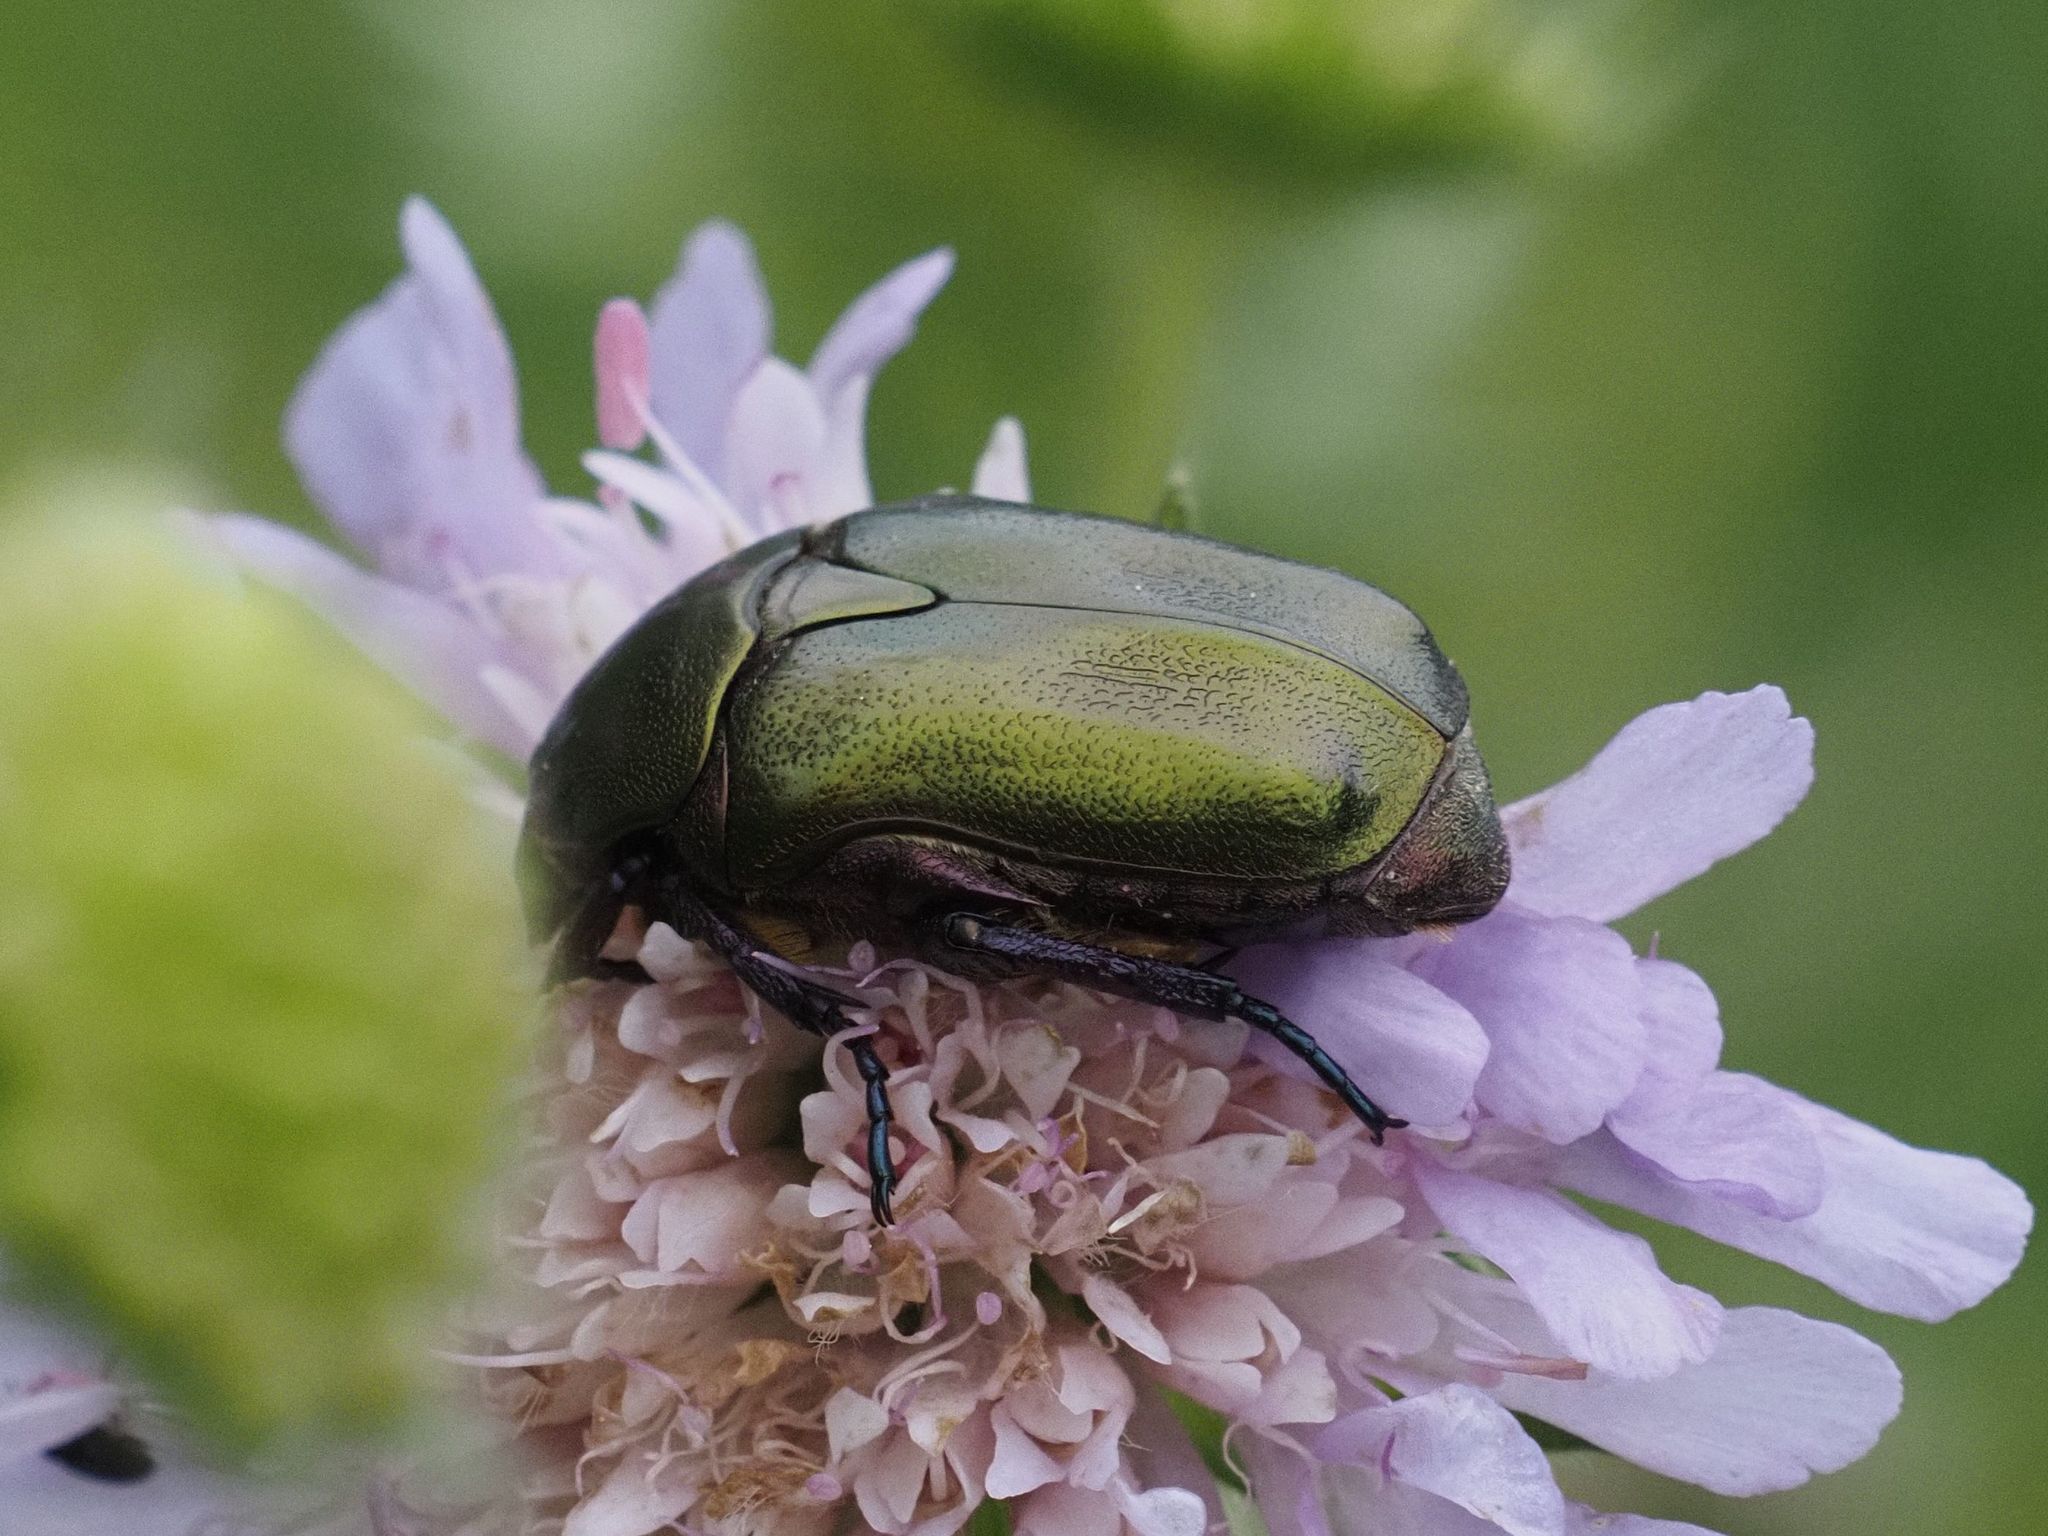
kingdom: Animalia
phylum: Arthropoda
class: Insecta
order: Coleoptera
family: Scarabaeidae
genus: Protaetia
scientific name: Protaetia cuprea
